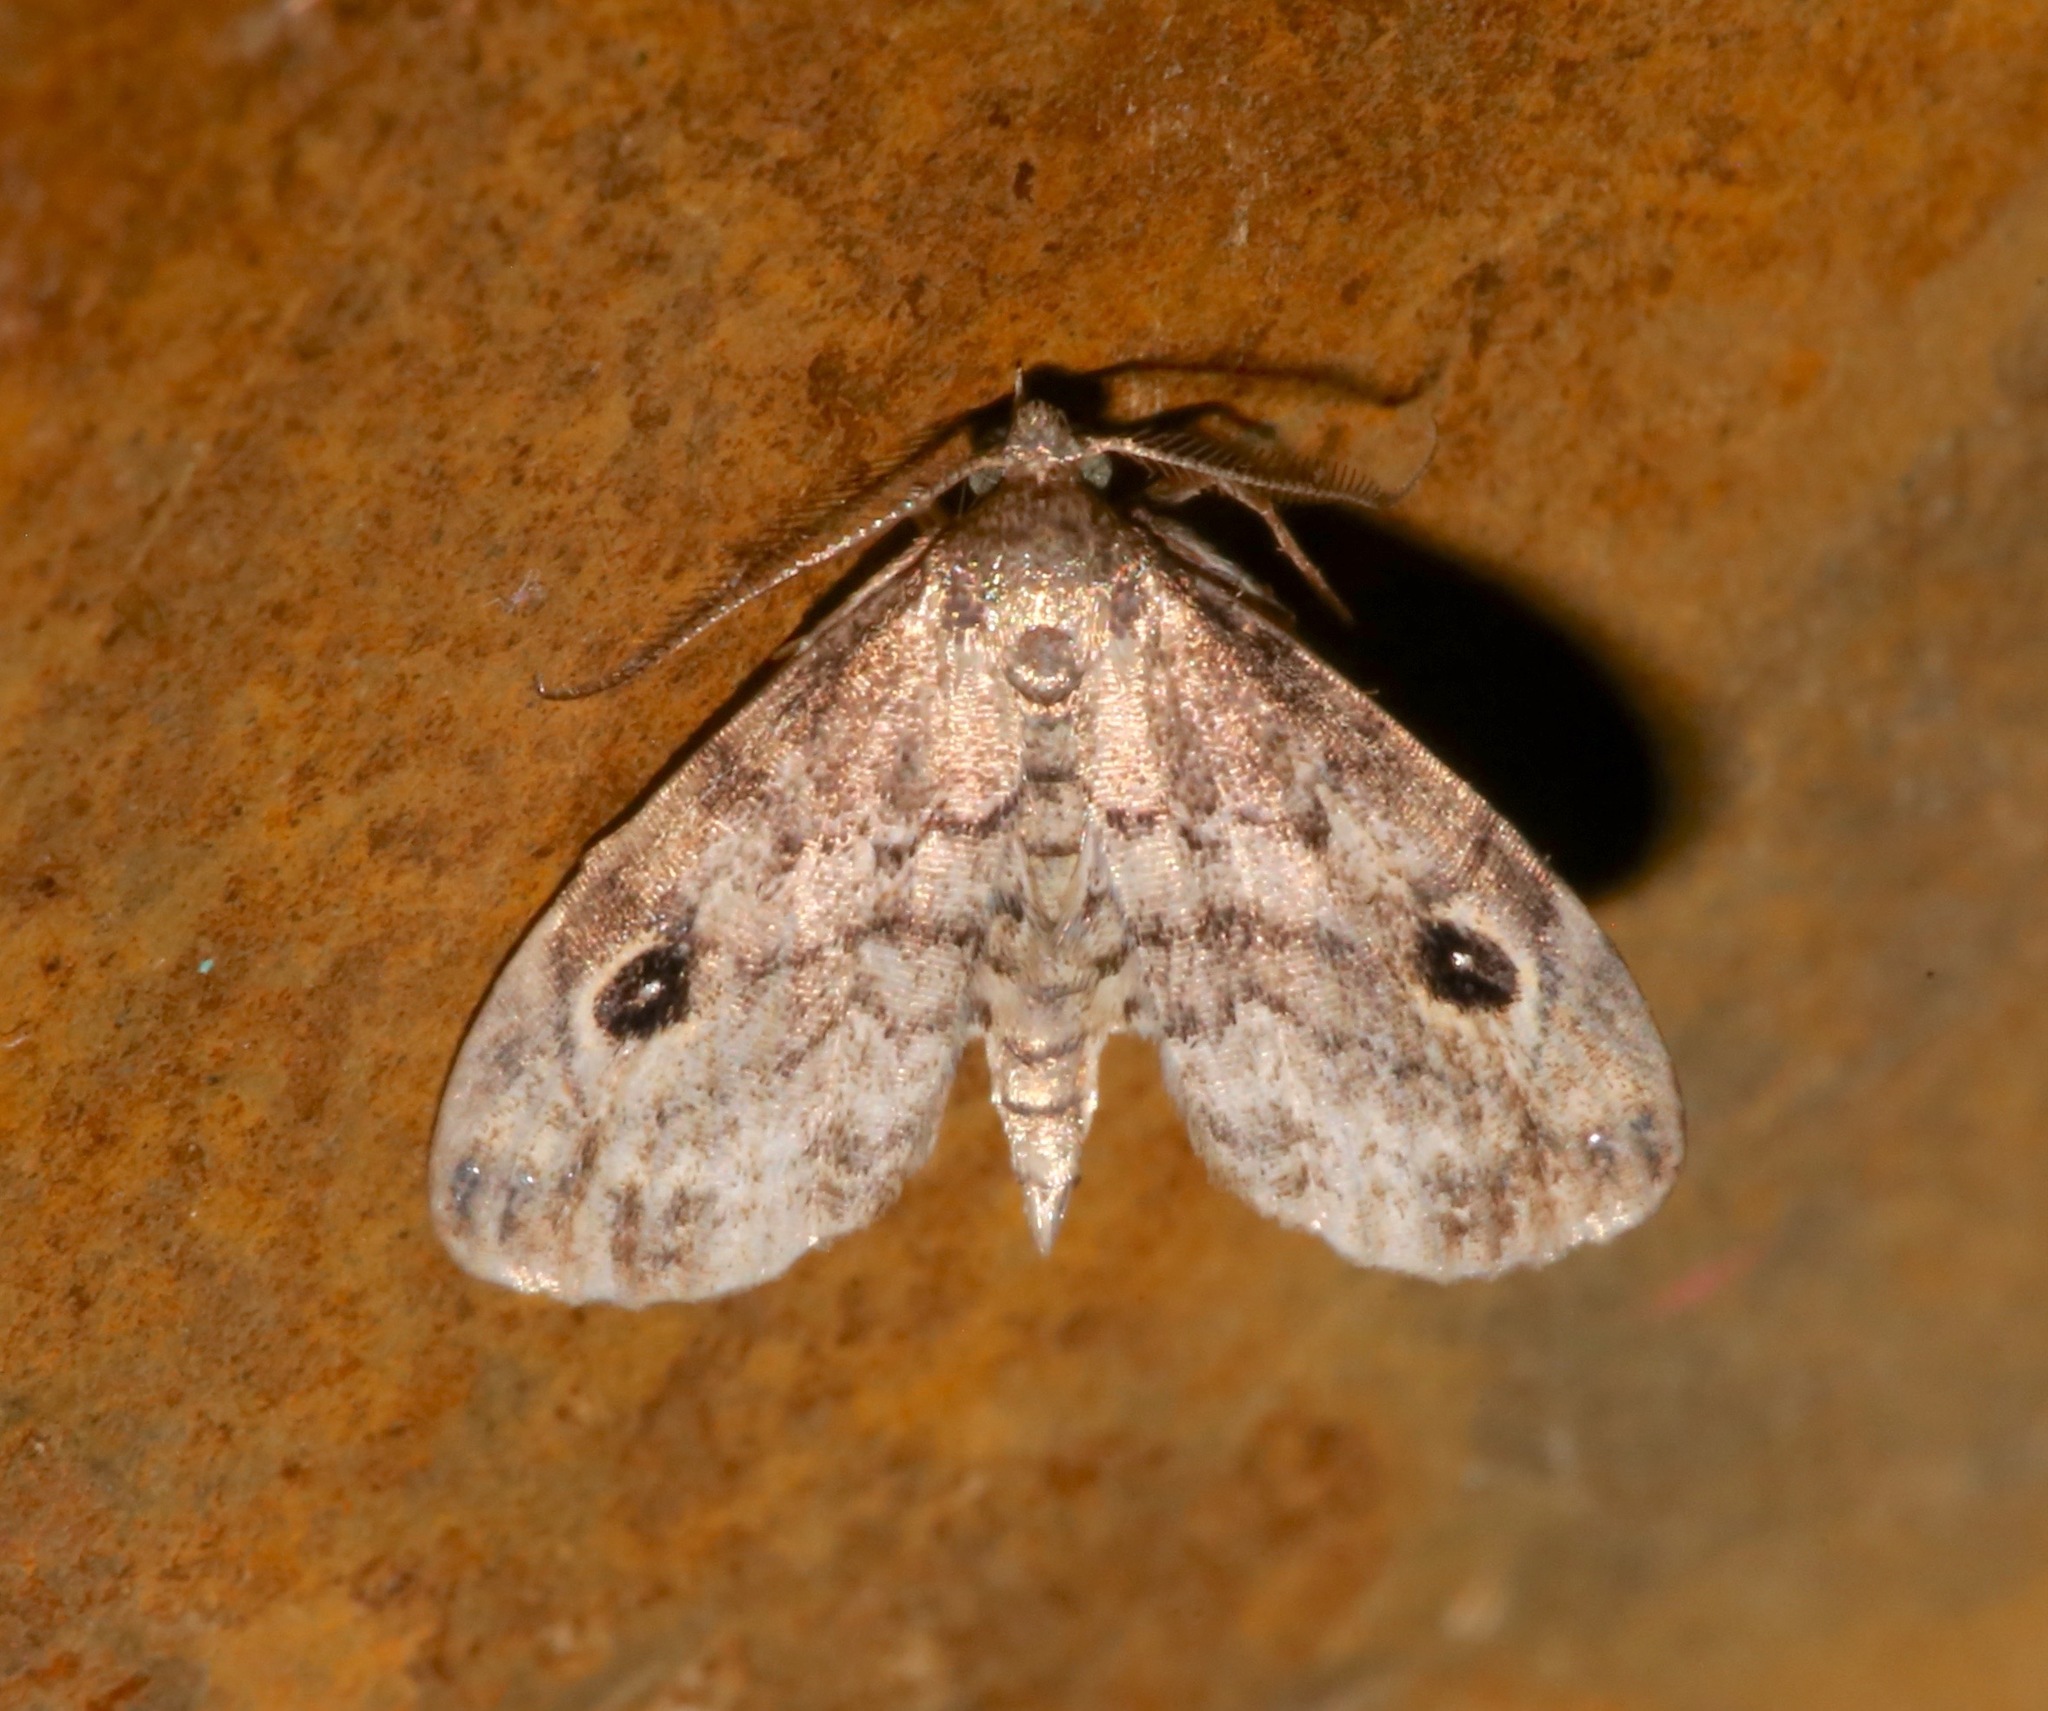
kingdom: Animalia
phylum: Arthropoda
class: Insecta
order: Lepidoptera
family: Erebidae
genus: Melanomma
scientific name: Melanomma auricinctaria
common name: Gold-lined melanomma moth
